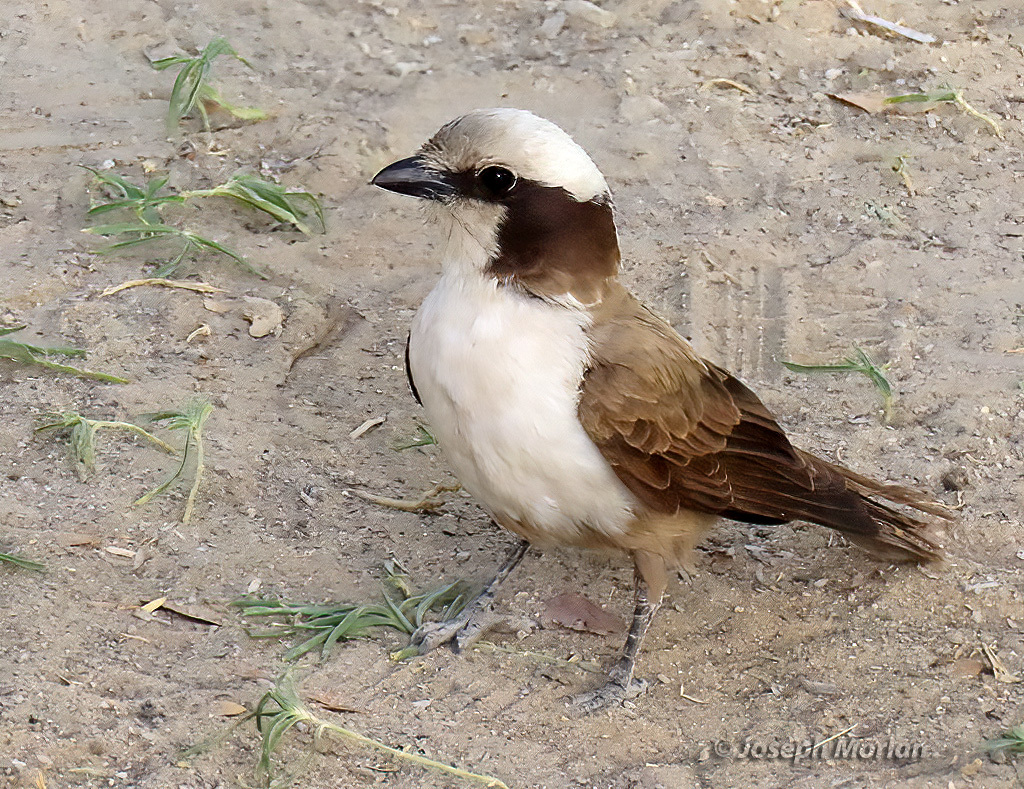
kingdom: Animalia
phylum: Chordata
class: Aves
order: Passeriformes
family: Laniidae
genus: Eurocephalus
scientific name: Eurocephalus anguitimens
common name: Southern white-crowned shrike
